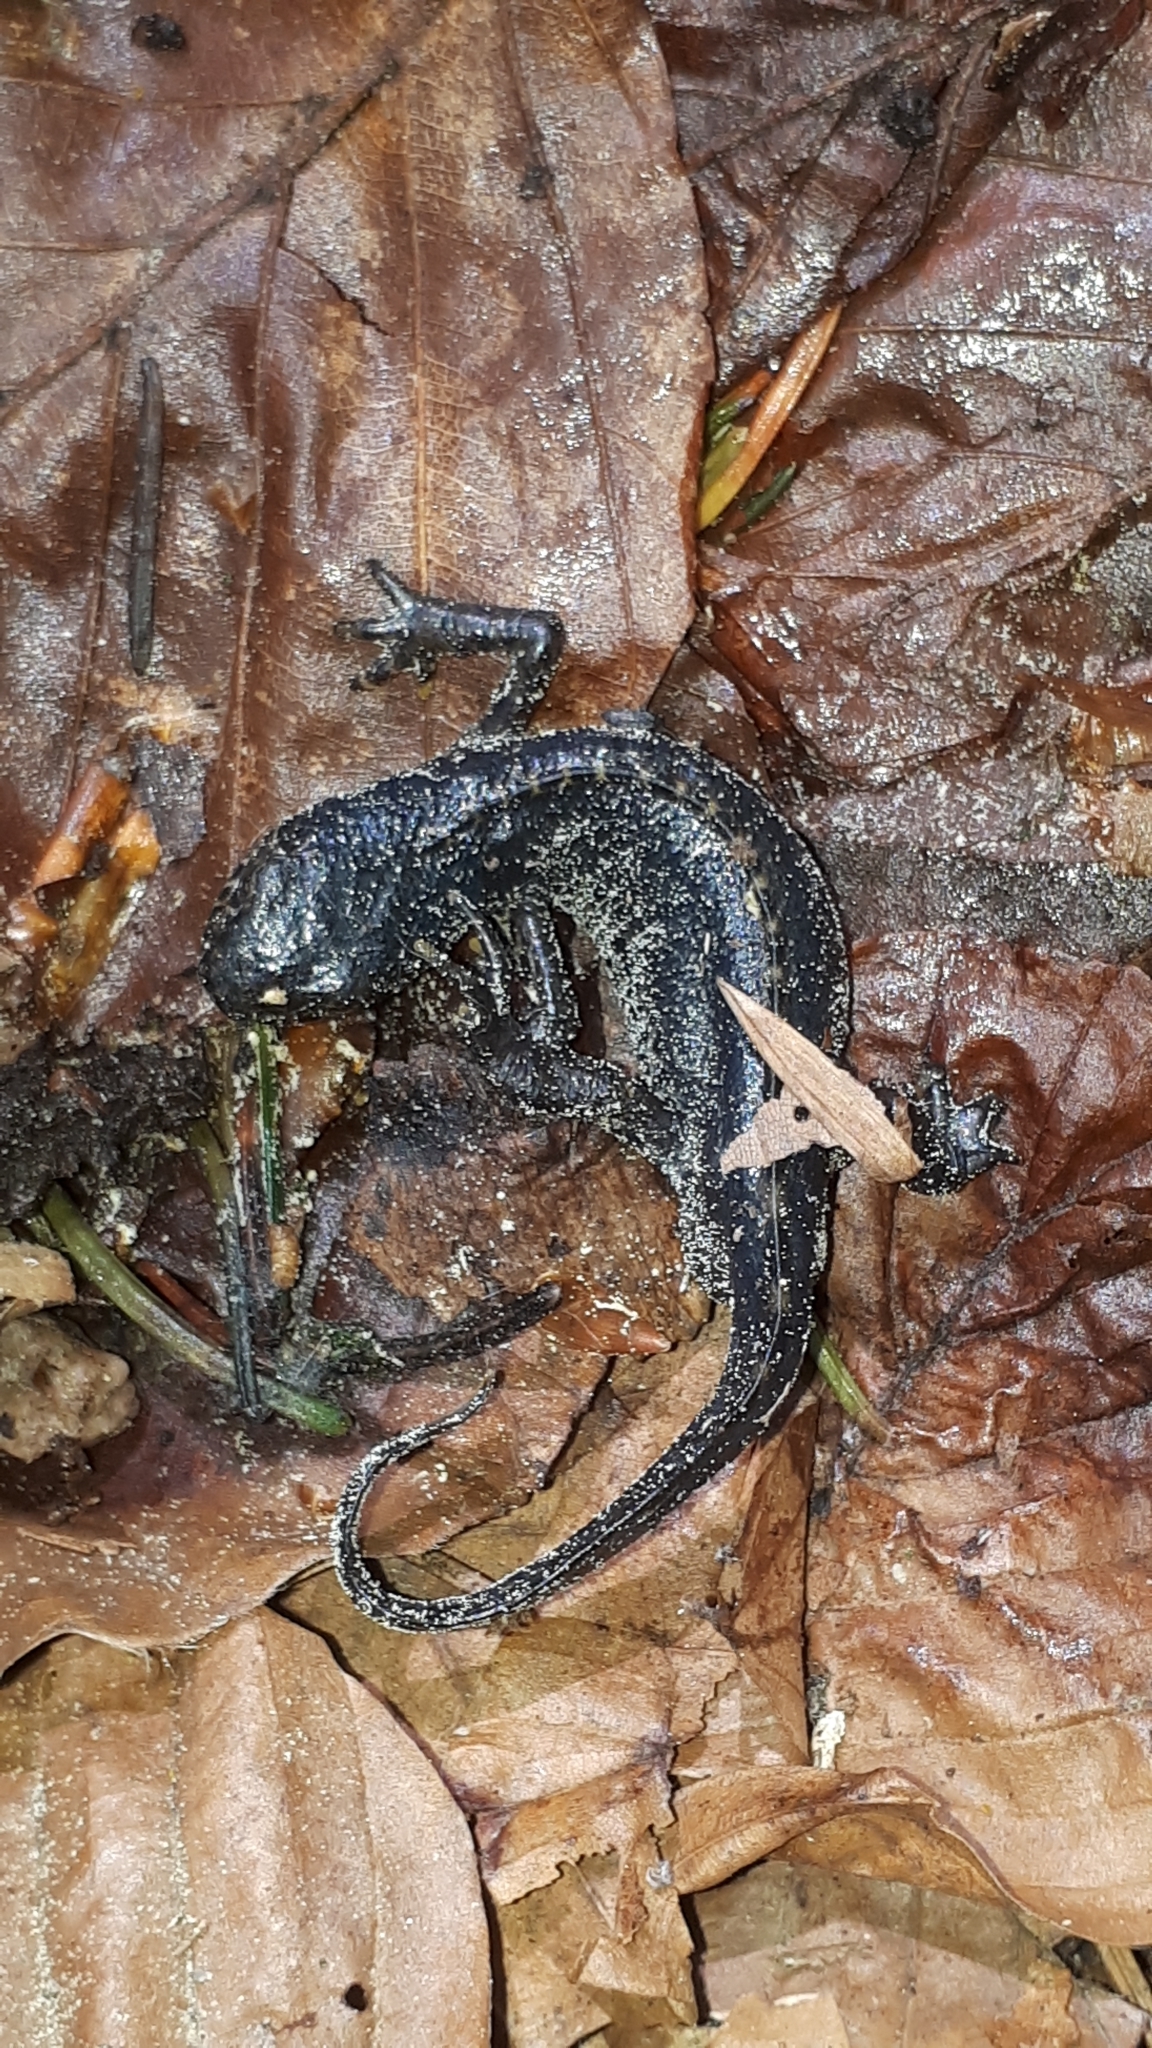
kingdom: Animalia
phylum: Chordata
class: Amphibia
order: Caudata
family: Salamandridae
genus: Ichthyosaura
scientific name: Ichthyosaura alpestris
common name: Alpine newt
